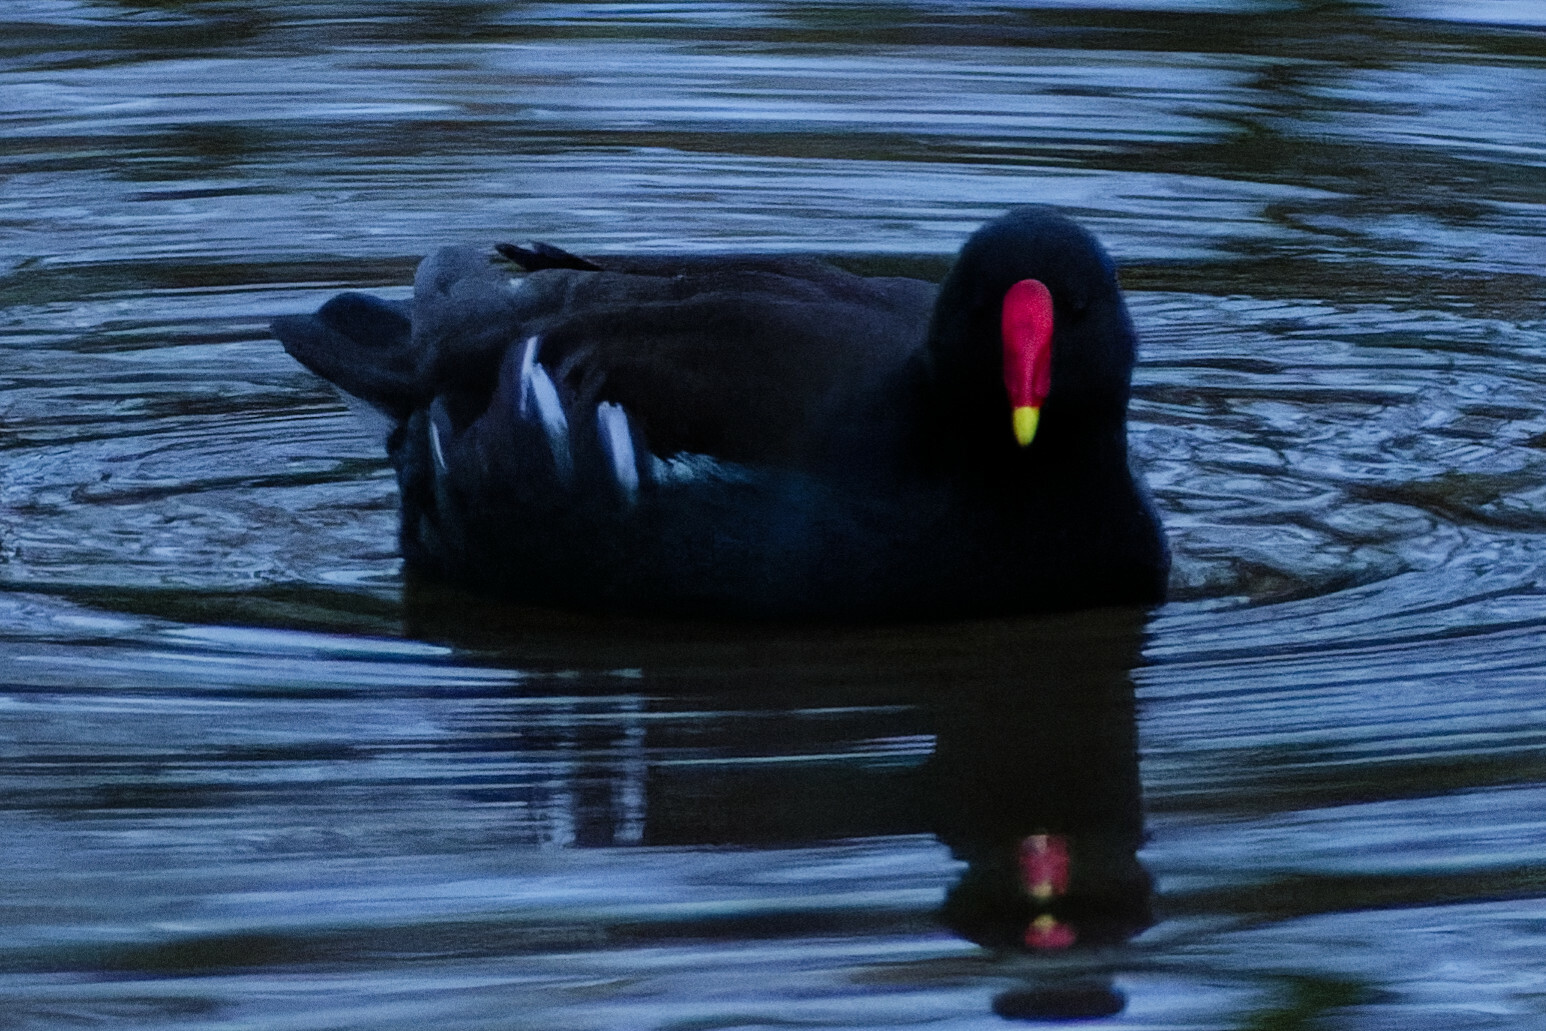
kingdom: Animalia
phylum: Chordata
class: Aves
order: Gruiformes
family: Rallidae
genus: Gallinula
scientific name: Gallinula chloropus
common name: Common moorhen
